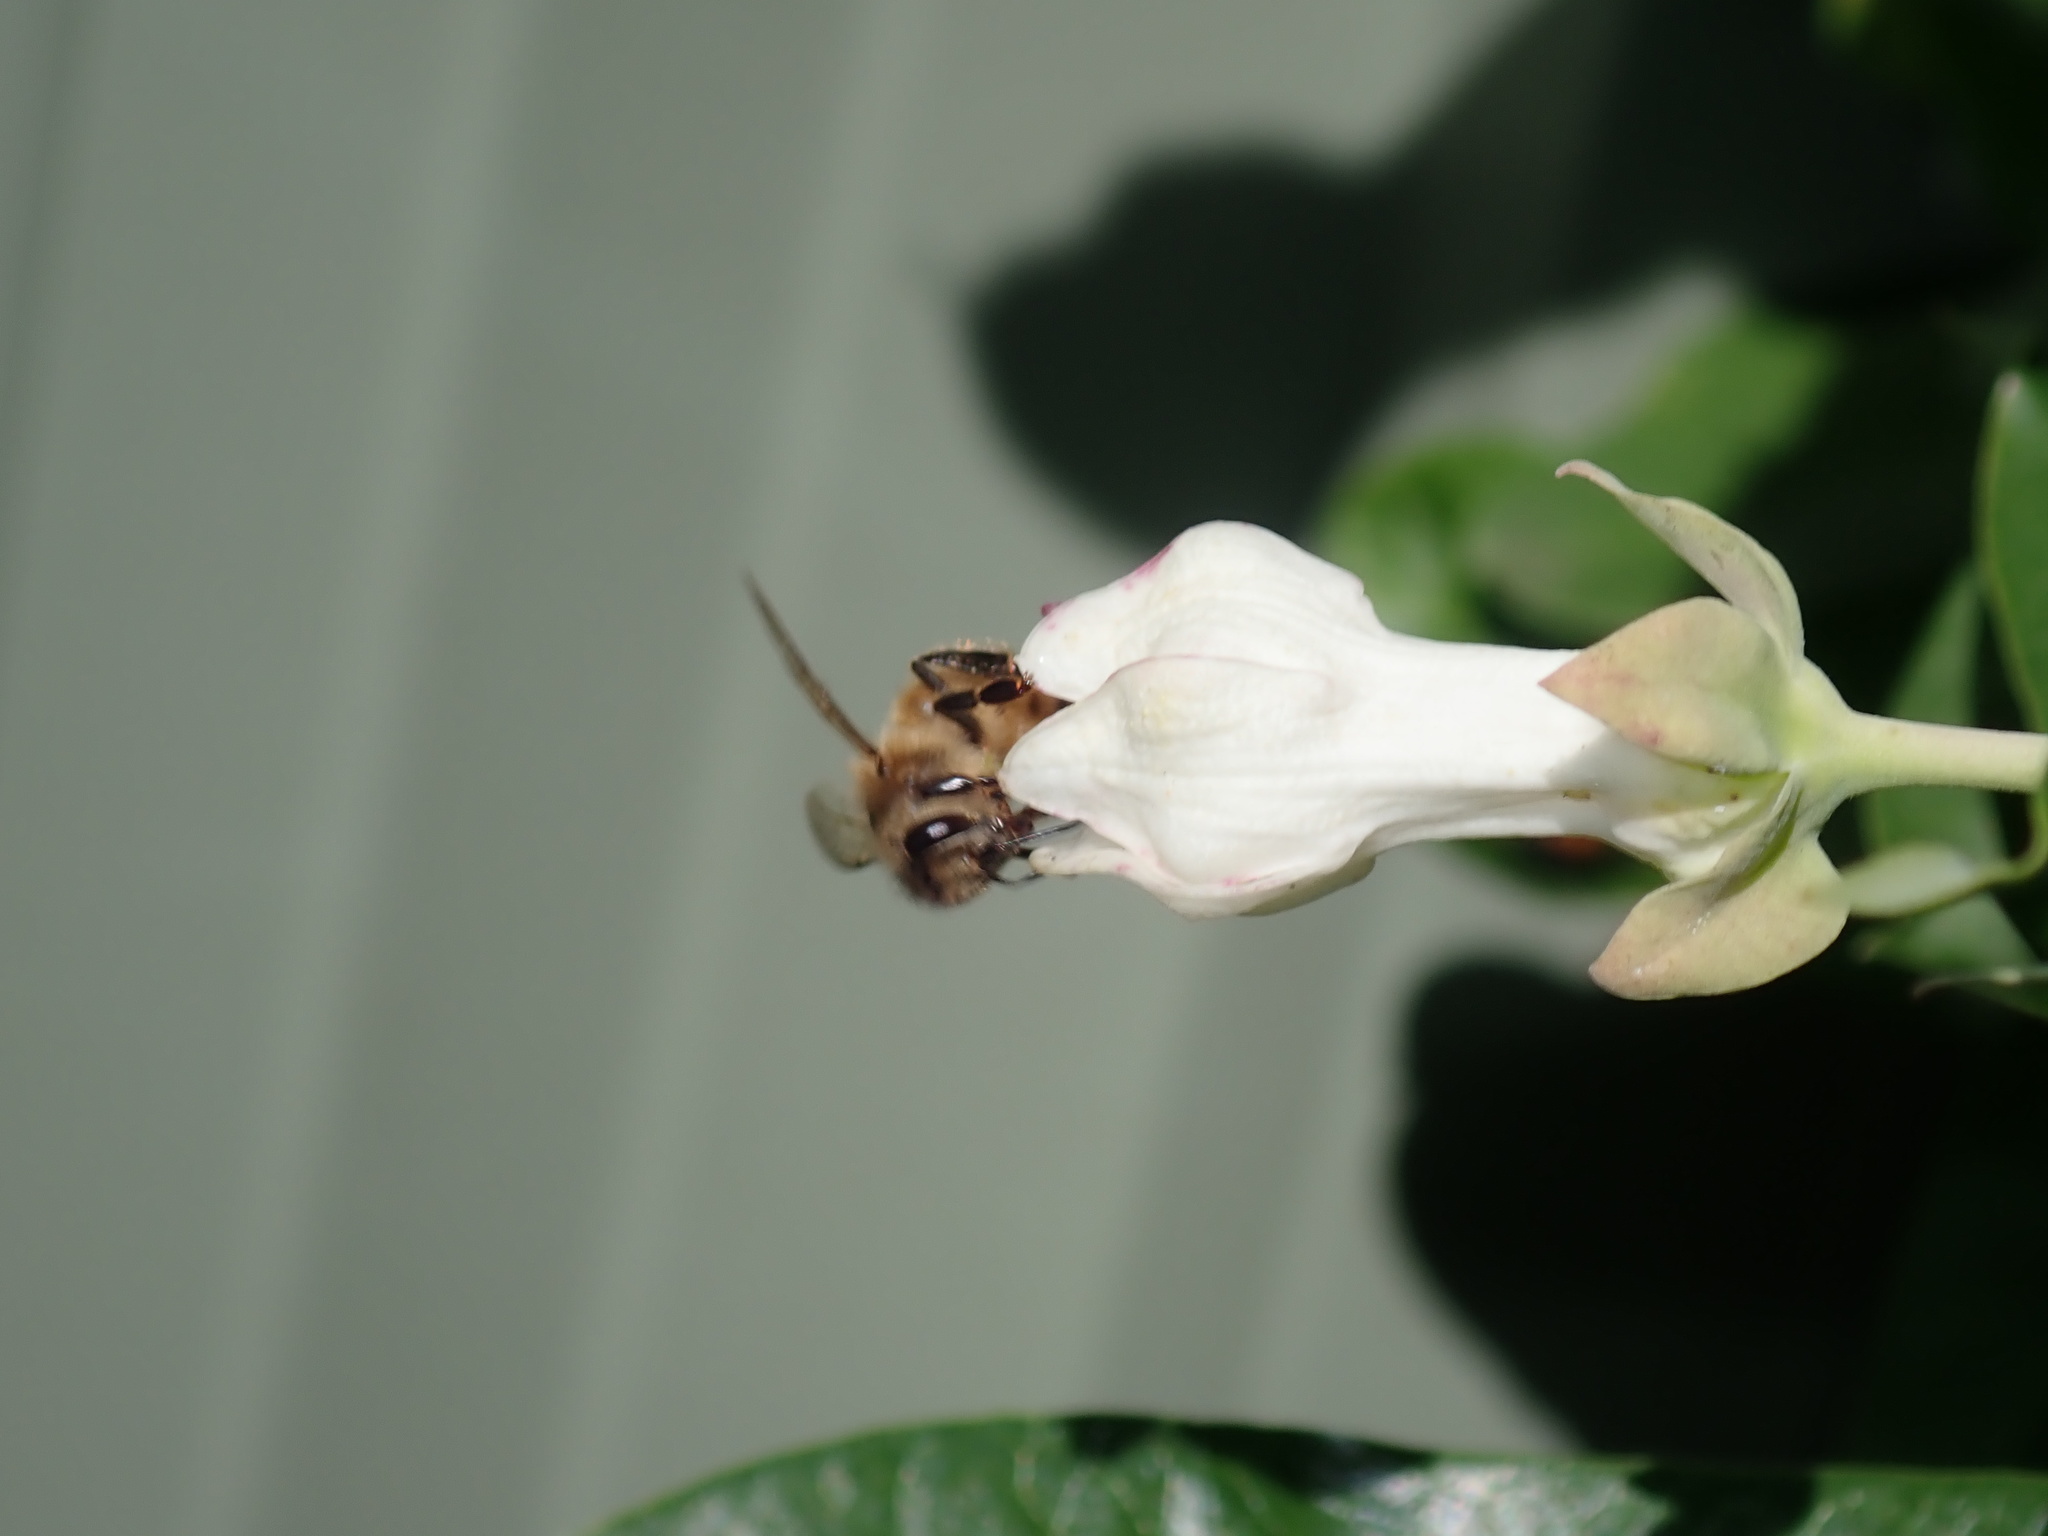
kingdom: Animalia
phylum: Arthropoda
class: Insecta
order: Hymenoptera
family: Apidae
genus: Apis
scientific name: Apis mellifera
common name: Honey bee
